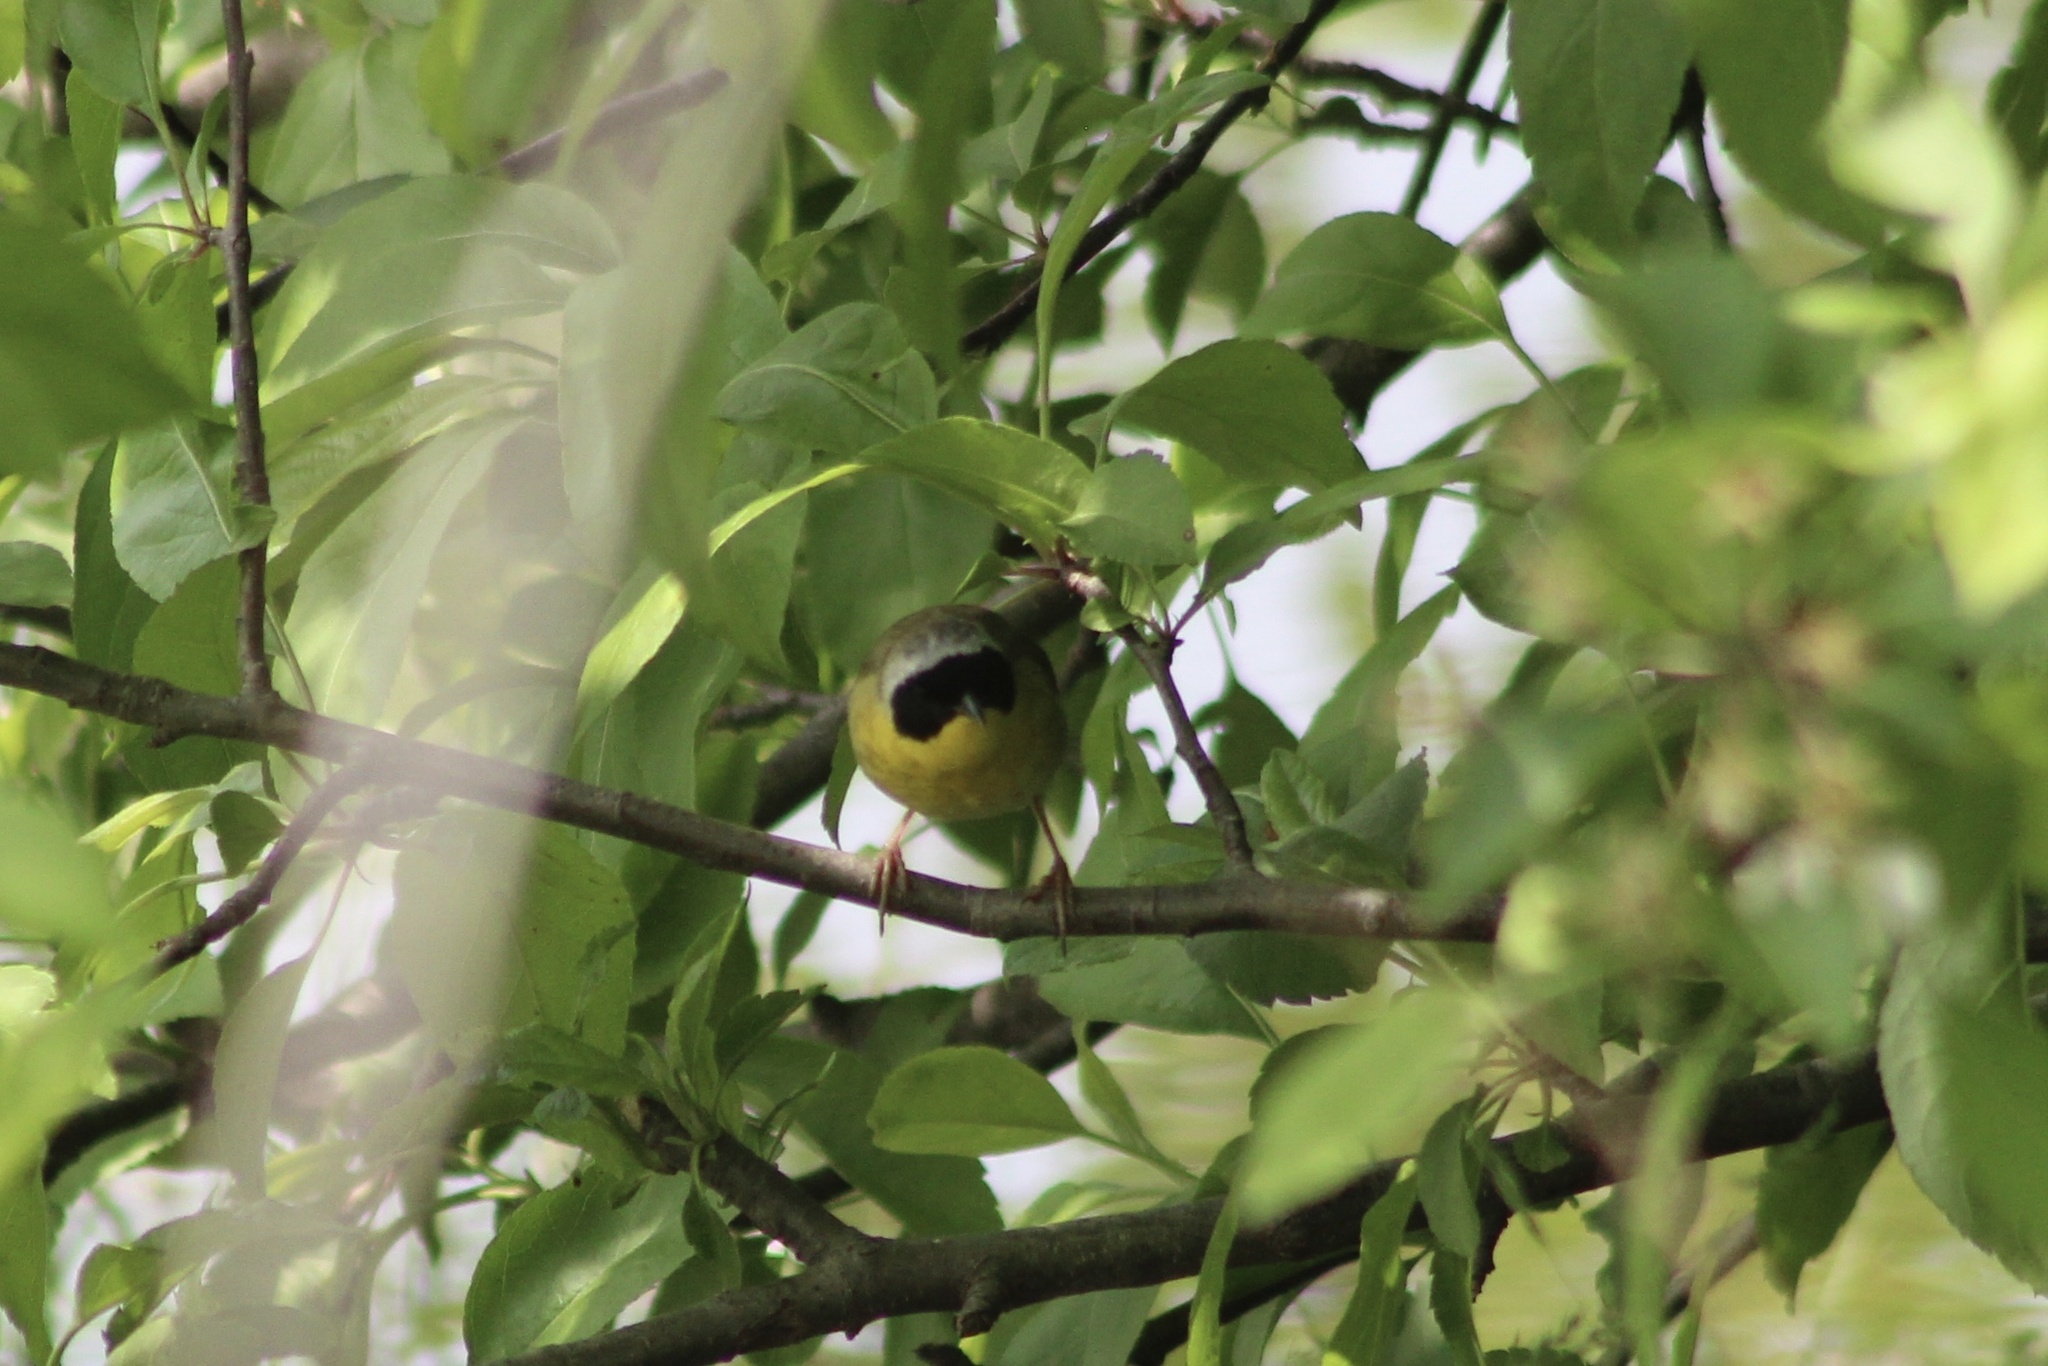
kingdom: Animalia
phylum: Chordata
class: Aves
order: Passeriformes
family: Parulidae
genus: Geothlypis
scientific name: Geothlypis trichas
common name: Common yellowthroat
